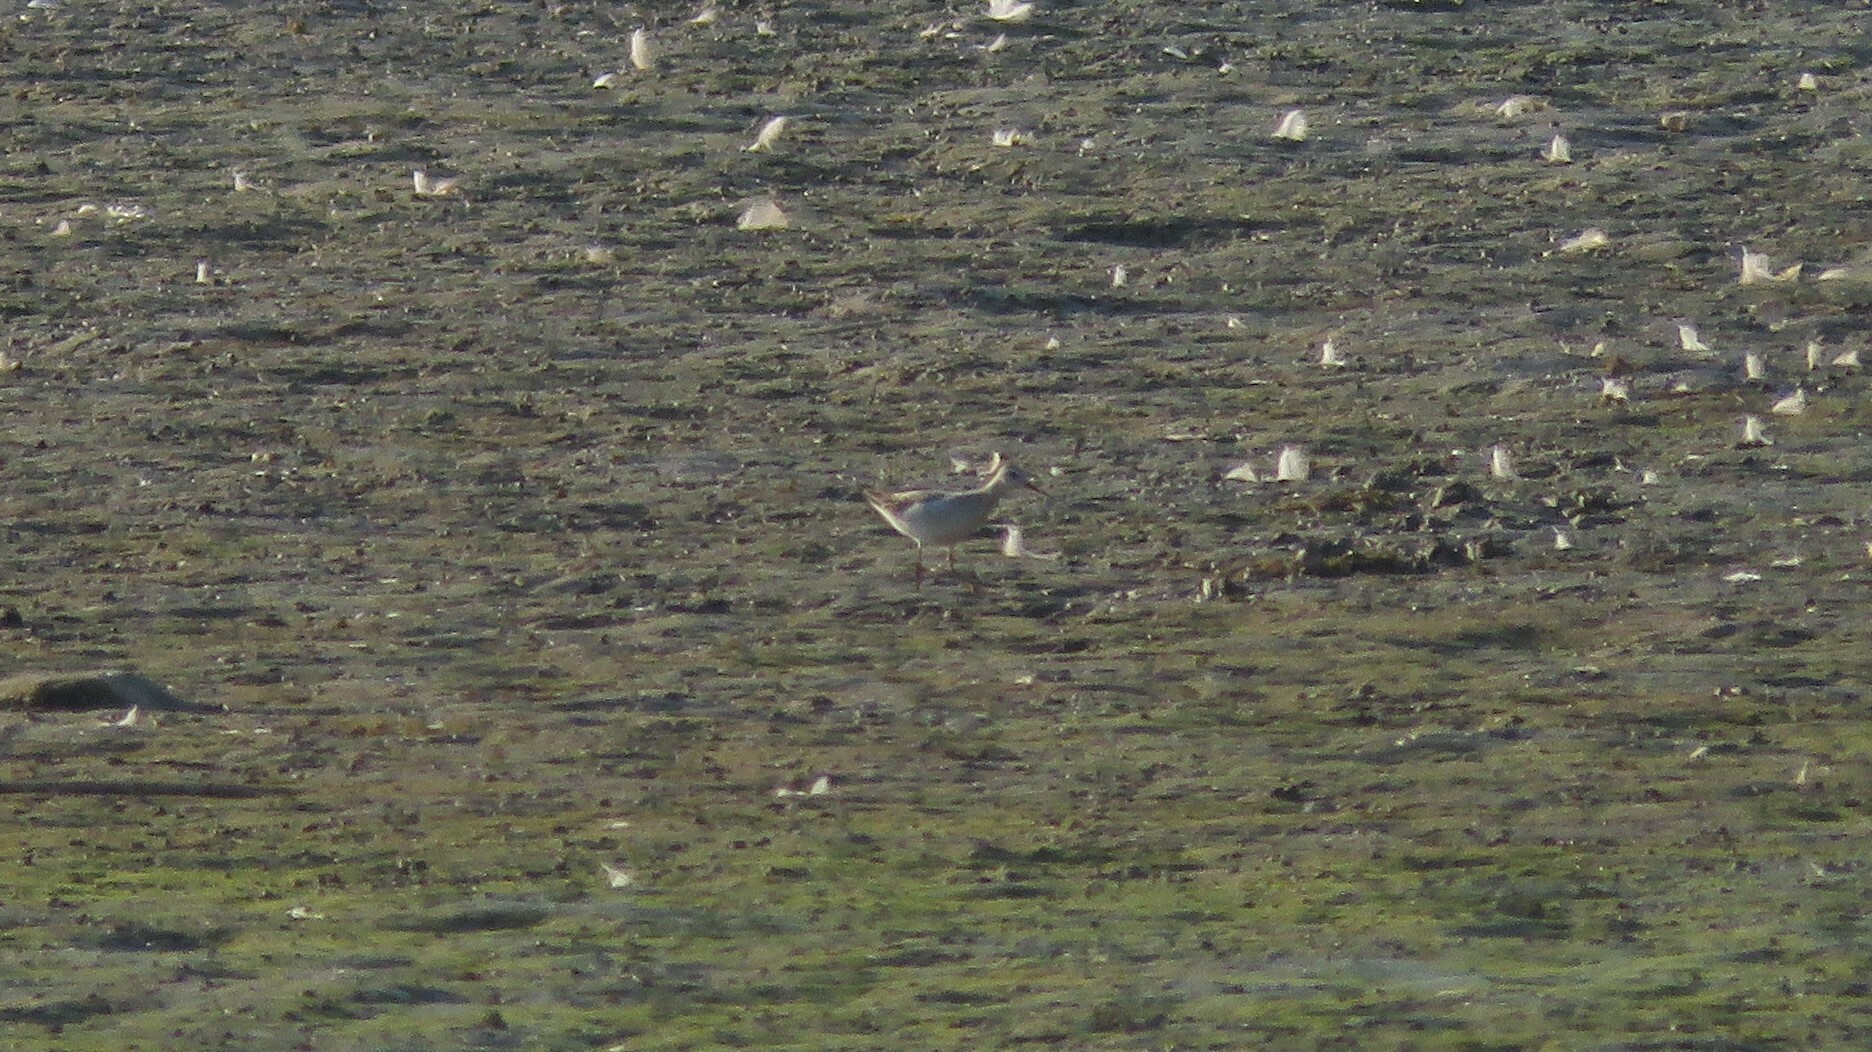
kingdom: Animalia
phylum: Chordata
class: Aves
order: Charadriiformes
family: Scolopacidae
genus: Phalaropus
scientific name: Phalaropus tricolor
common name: Wilson's phalarope
